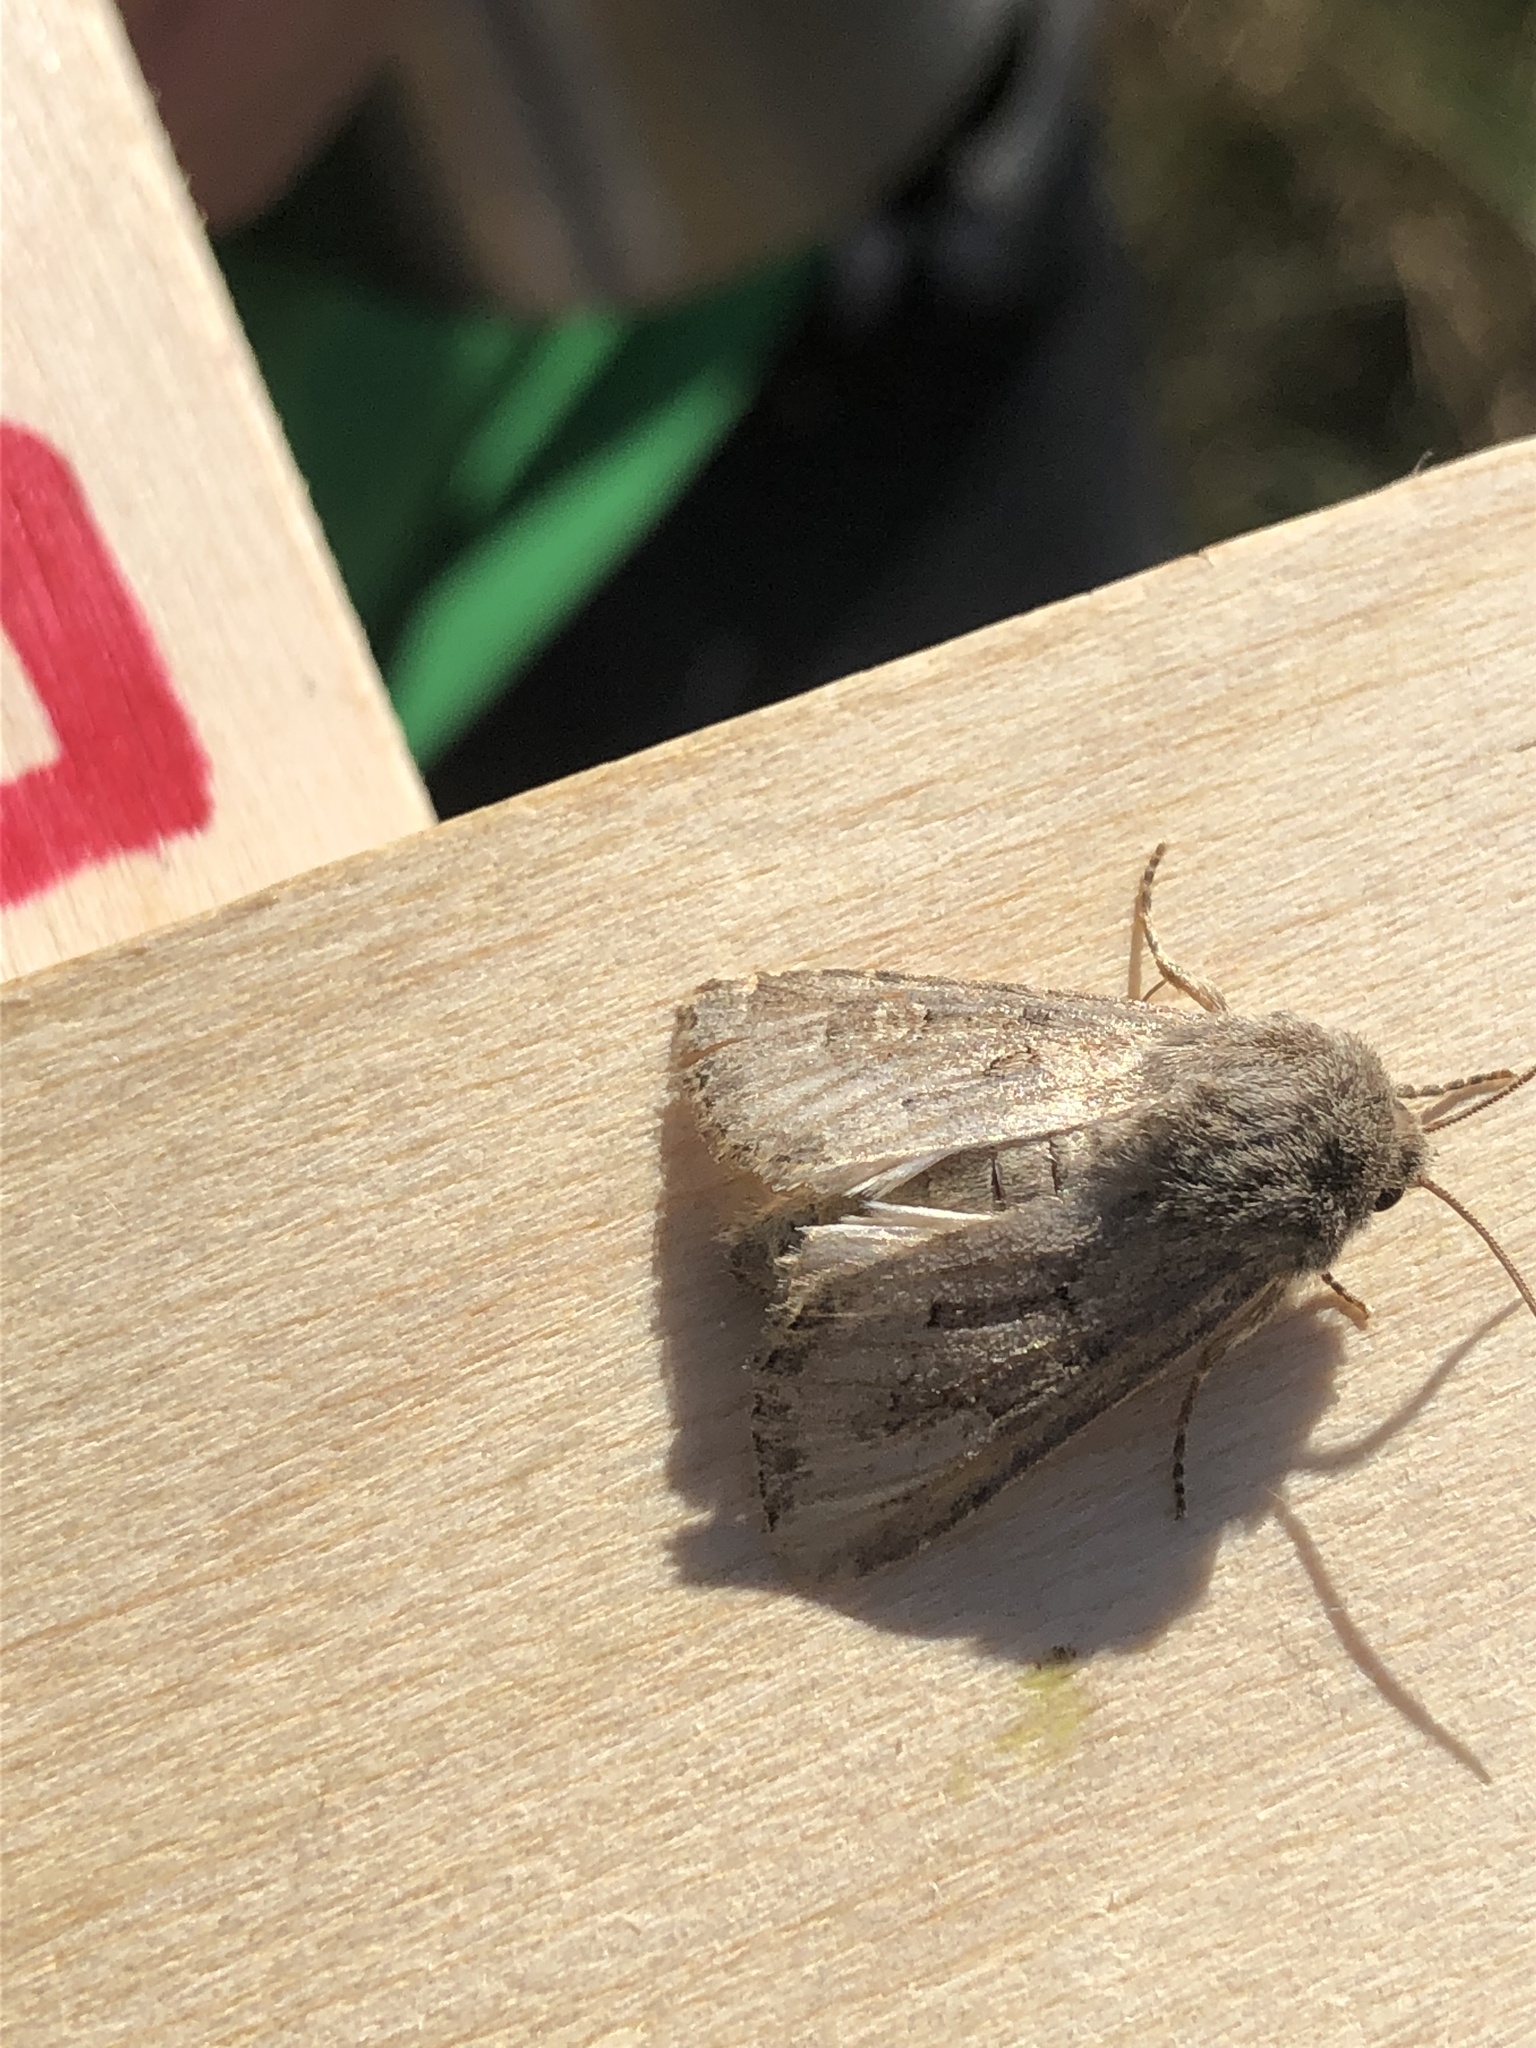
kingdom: Animalia
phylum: Arthropoda
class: Insecta
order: Lepidoptera
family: Noctuidae
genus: Luperina
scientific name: Luperina testacea
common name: Flounced rustic
